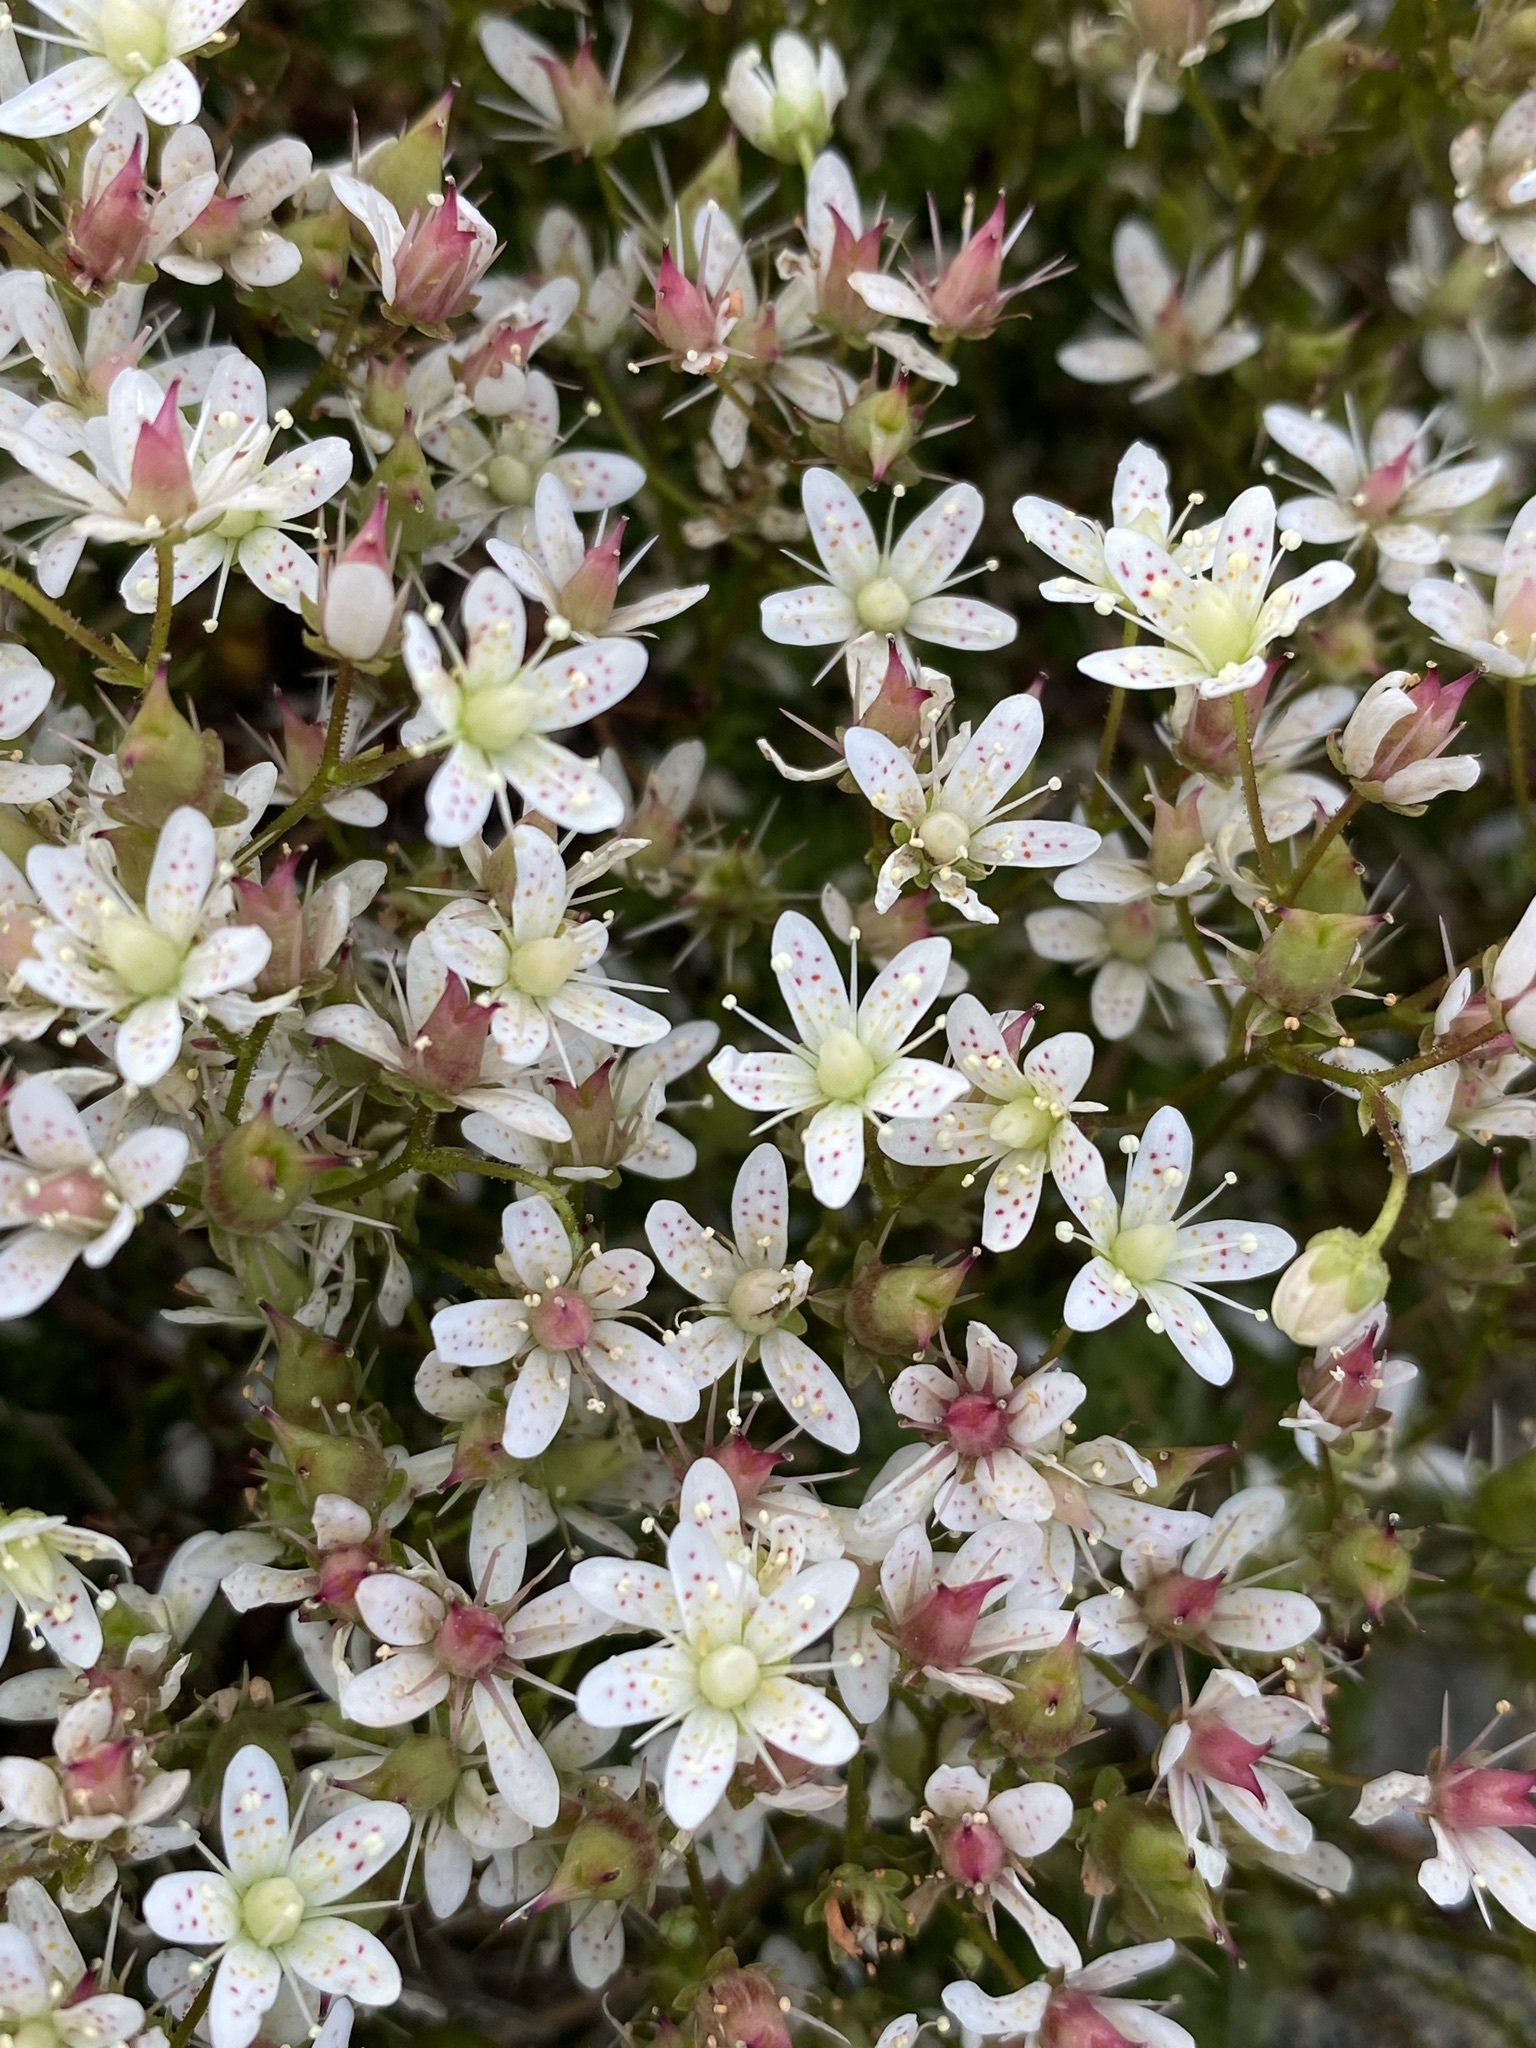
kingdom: Plantae
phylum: Tracheophyta
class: Magnoliopsida
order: Saxifragales
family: Saxifragaceae
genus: Saxifraga
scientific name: Saxifraga bronchialis
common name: Matted saxifrage
